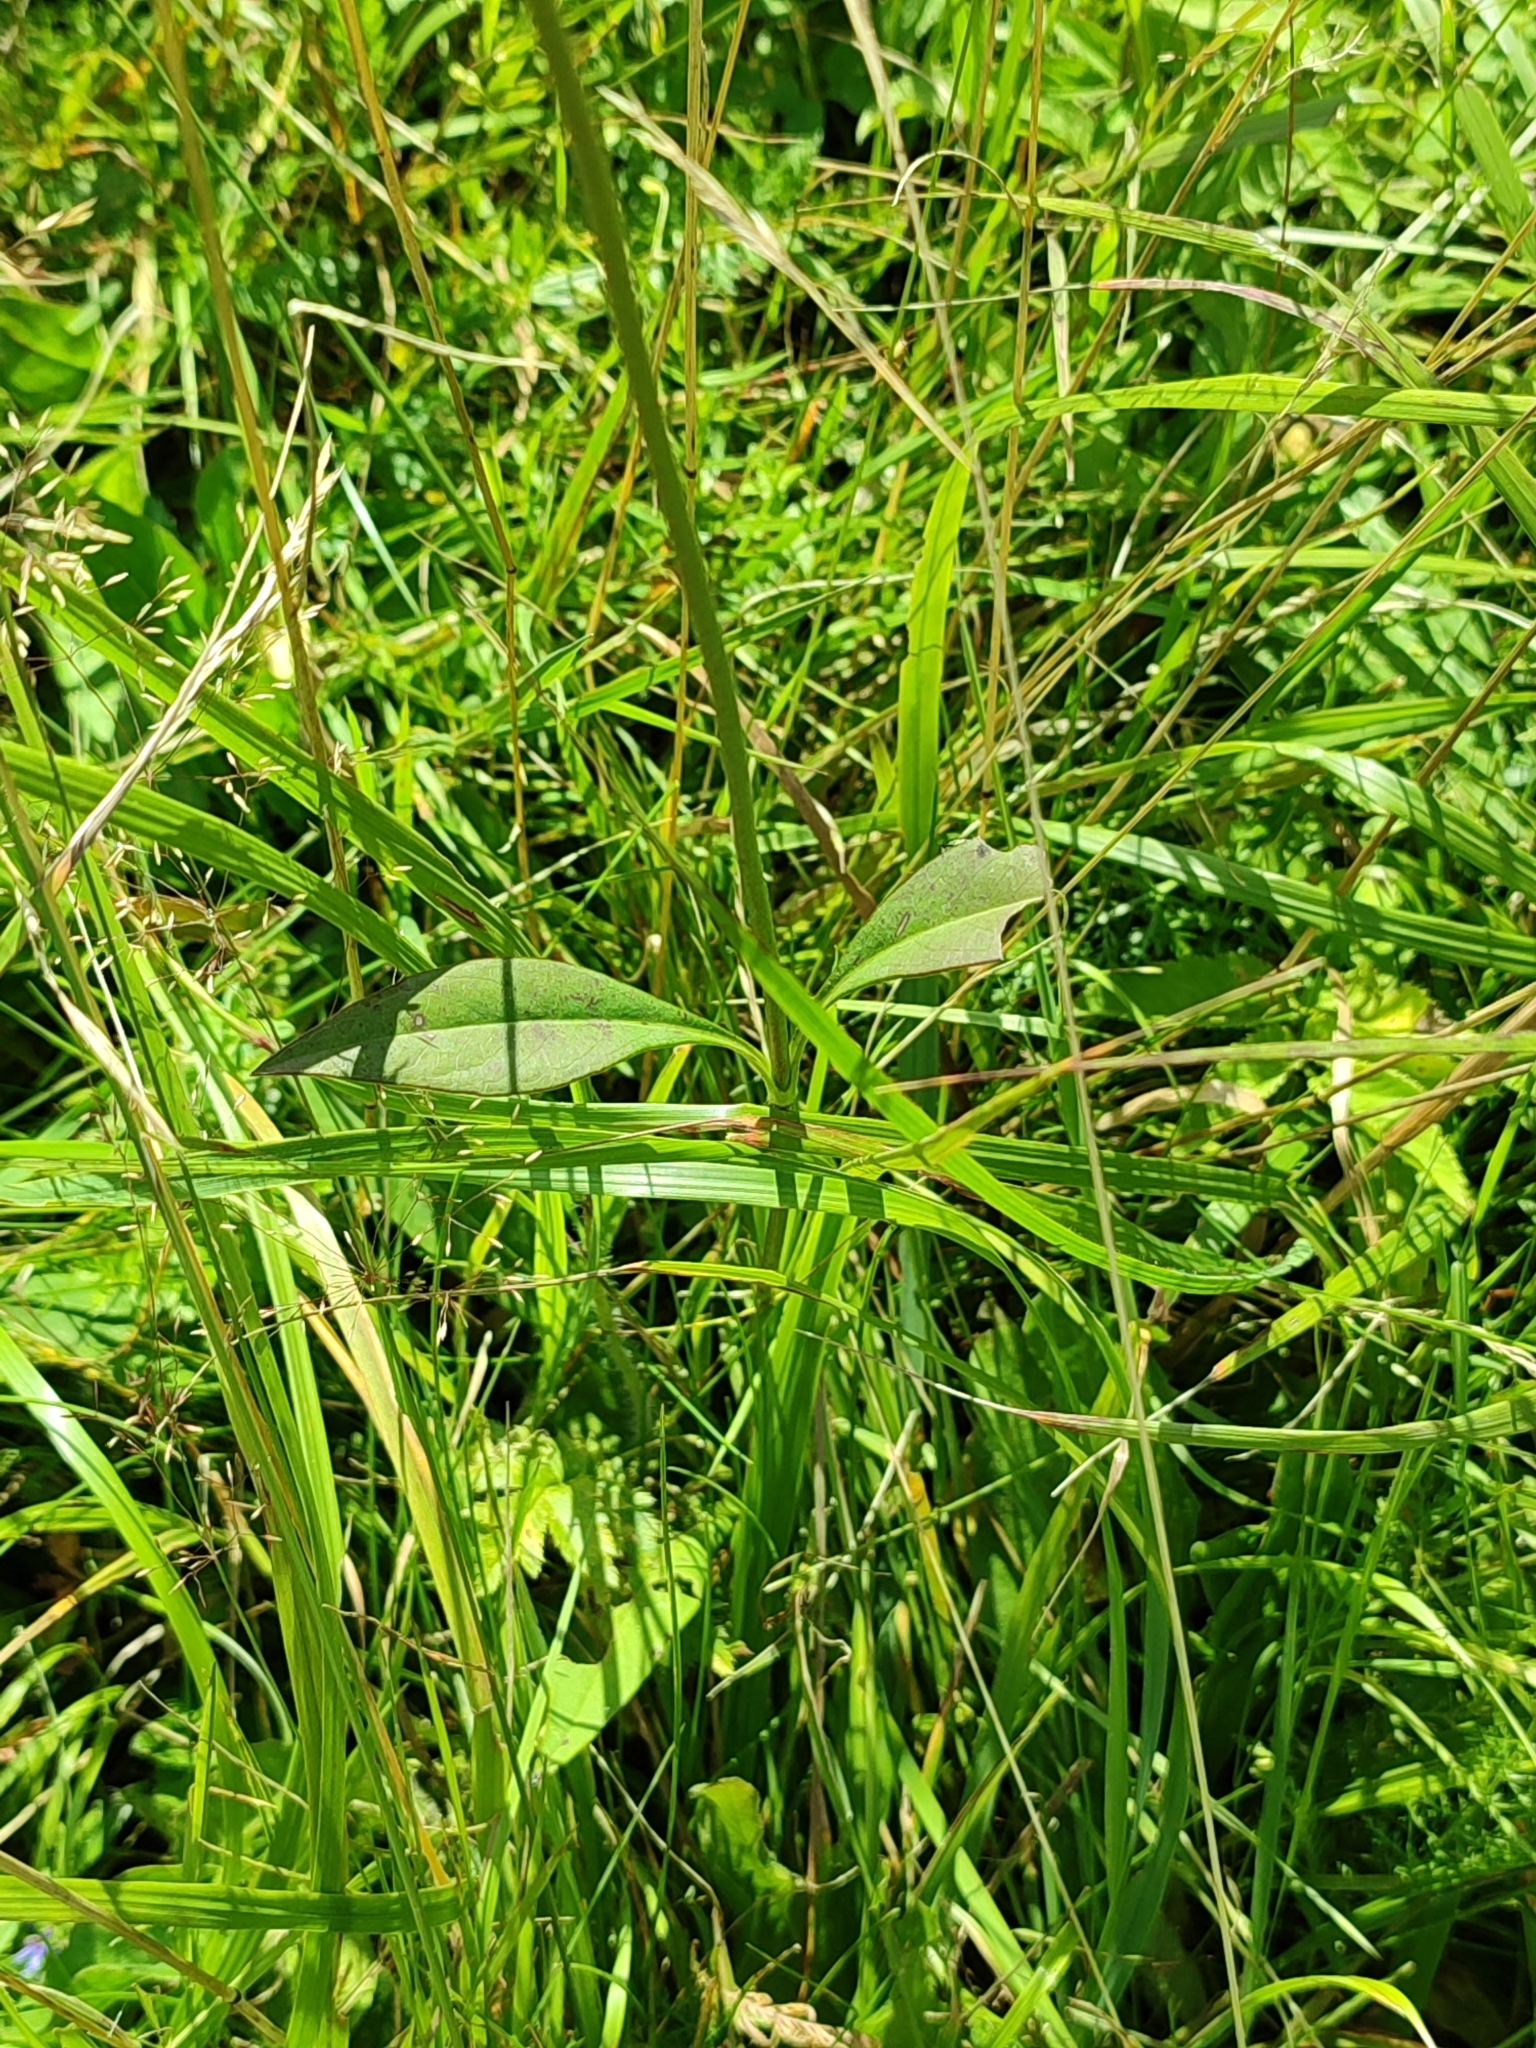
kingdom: Plantae
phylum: Tracheophyta
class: Magnoliopsida
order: Dipsacales
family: Caprifoliaceae
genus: Succisa
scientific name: Succisa pratensis
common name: Devil's-bit
